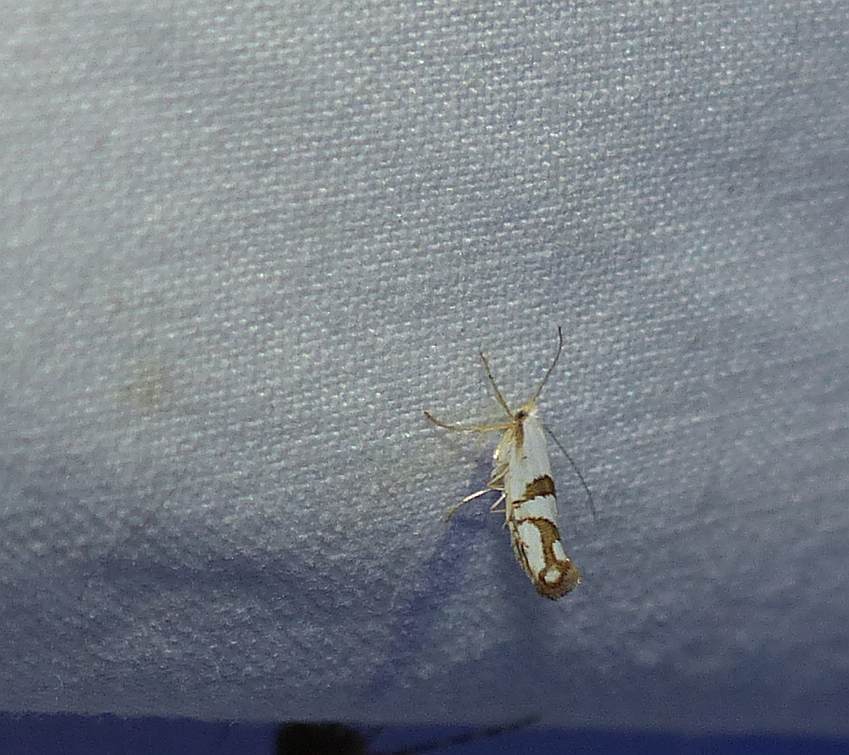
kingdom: Animalia
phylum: Arthropoda
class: Insecta
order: Lepidoptera
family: Argyresthiidae
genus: Argyresthia
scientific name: Argyresthia oreasella
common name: Cherry shoot borer moth
